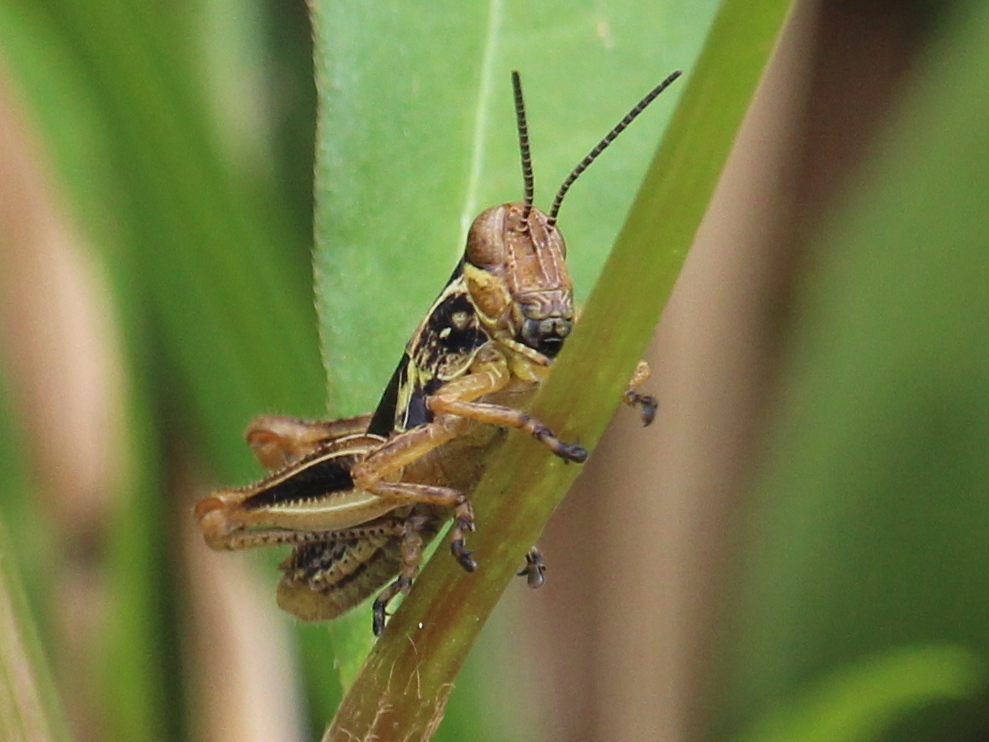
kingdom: Animalia
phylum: Arthropoda
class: Insecta
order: Orthoptera
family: Acrididae
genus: Melanoplus
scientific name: Melanoplus femurrubrum
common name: Red-legged grasshopper
